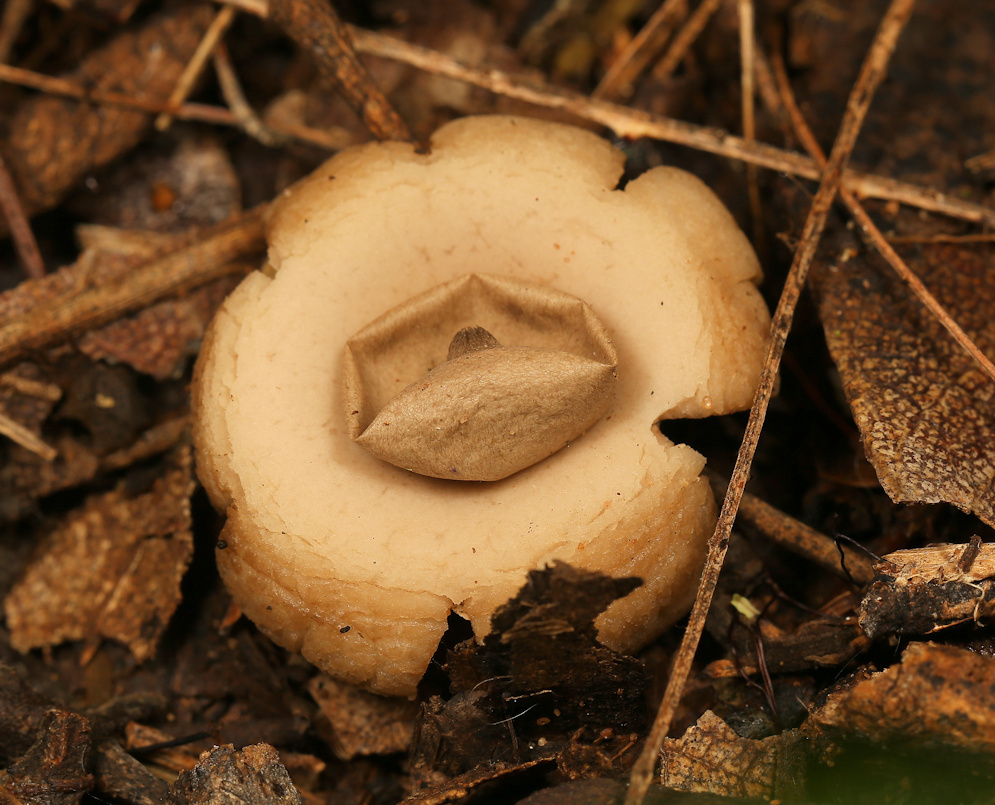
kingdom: Fungi
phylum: Basidiomycota
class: Agaricomycetes
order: Geastrales
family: Geastraceae
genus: Geastrum
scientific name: Geastrum triplex
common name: Collared earthstar
